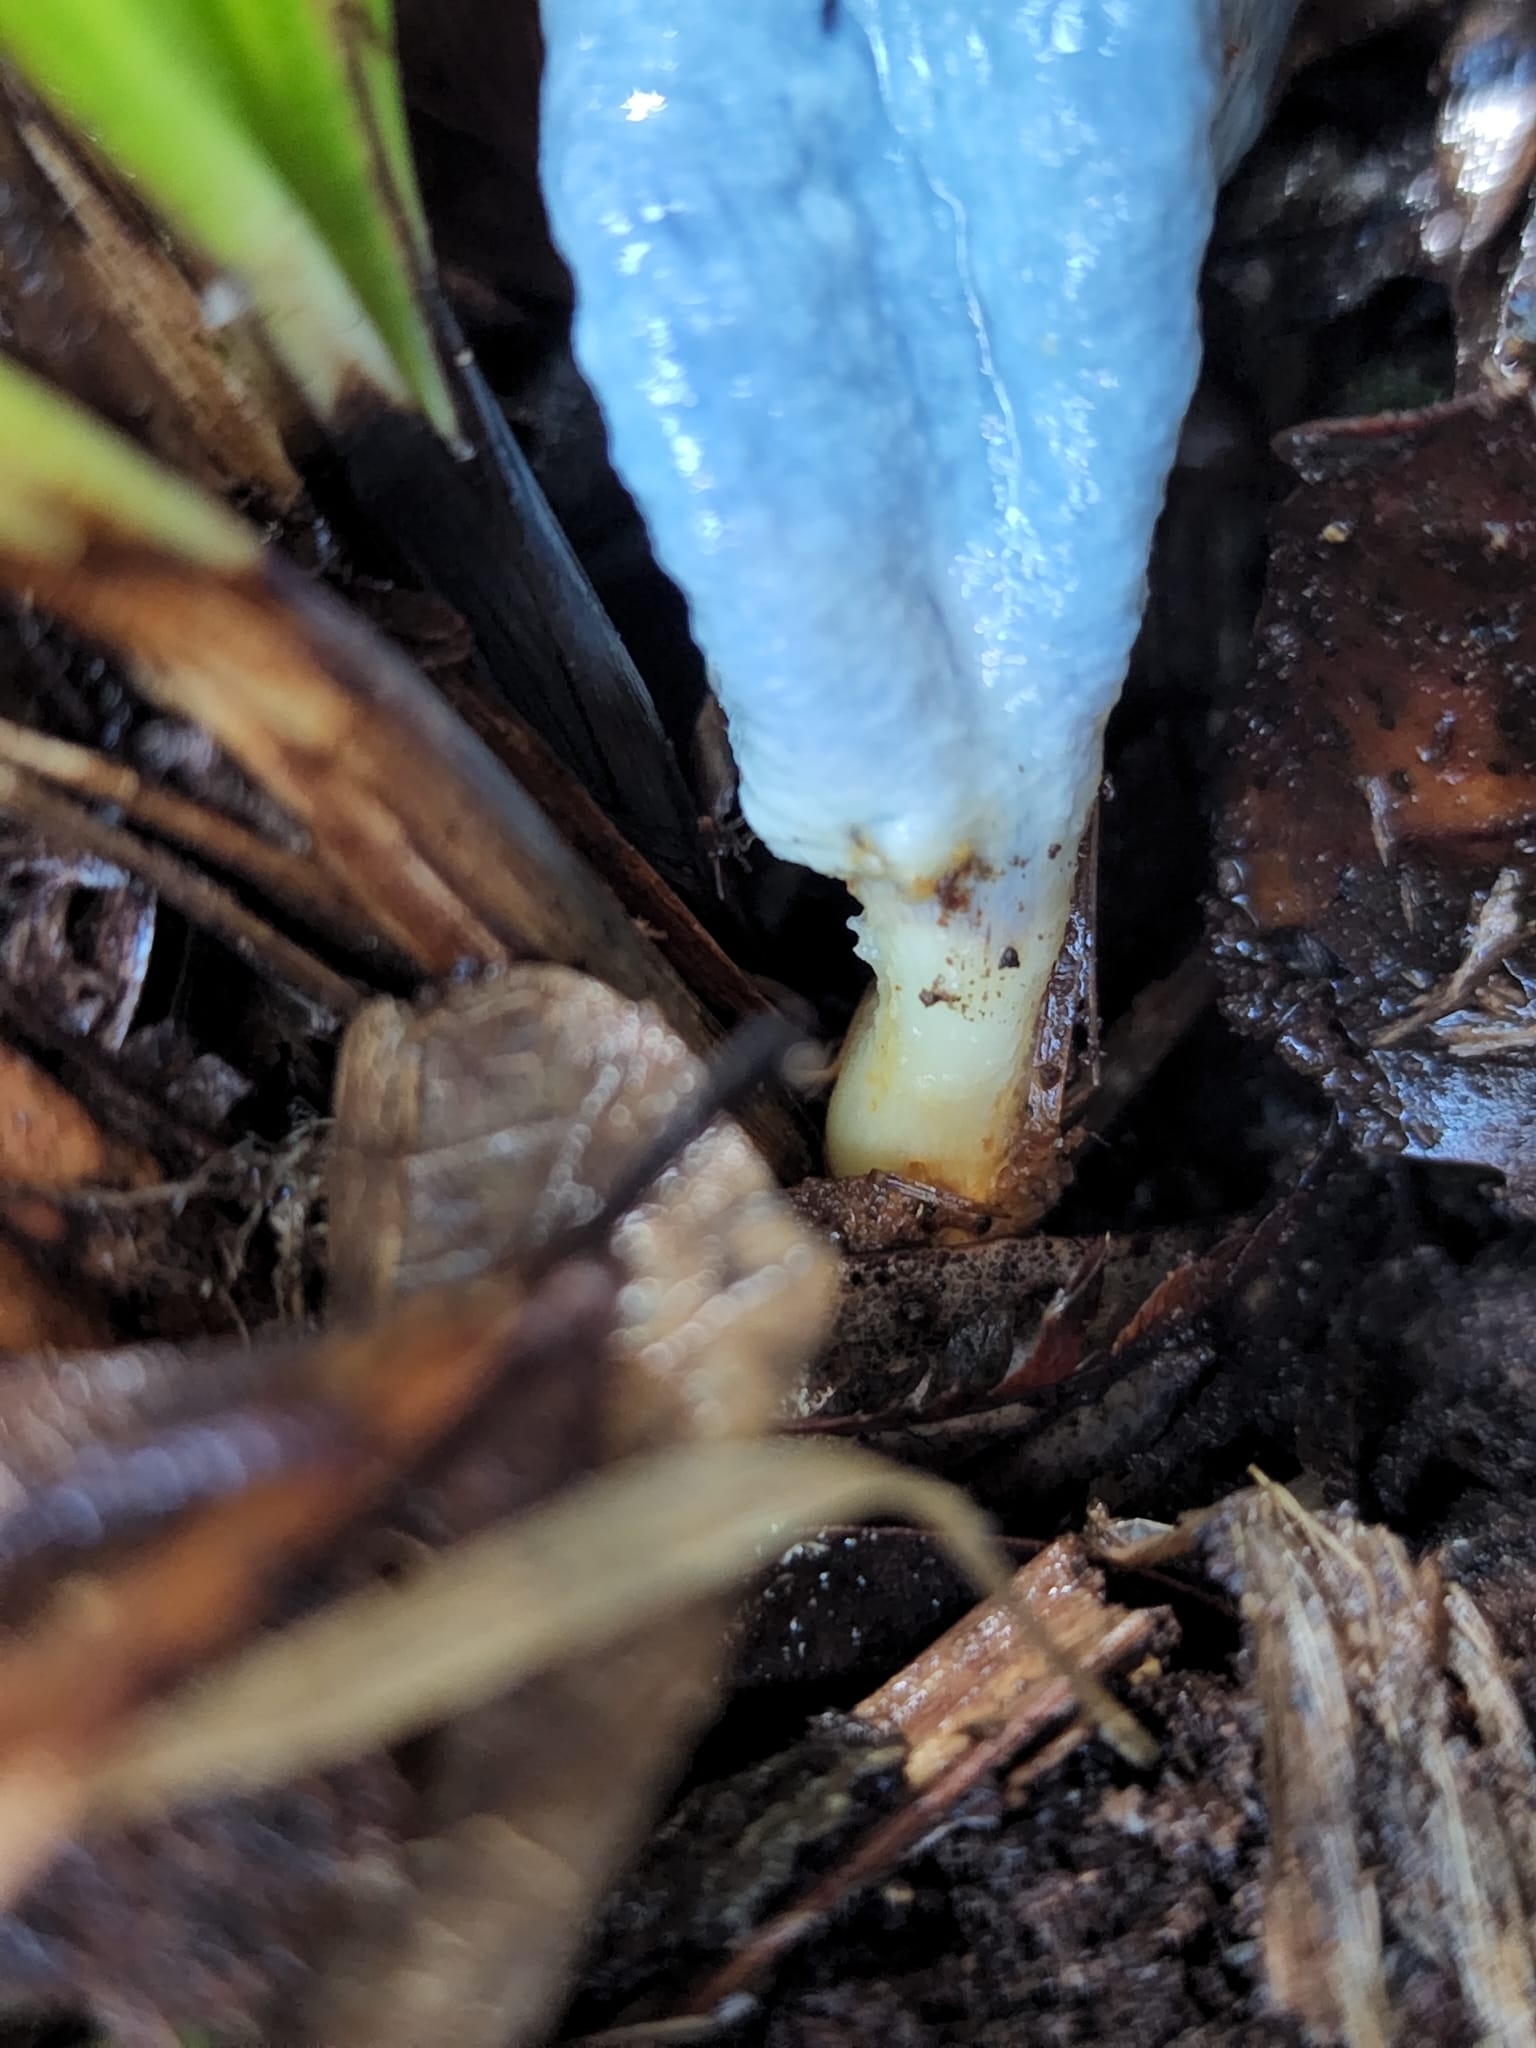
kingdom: Fungi
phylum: Basidiomycota
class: Agaricomycetes
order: Agaricales
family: Agaricaceae
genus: Clavogaster
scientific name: Clavogaster virescens
